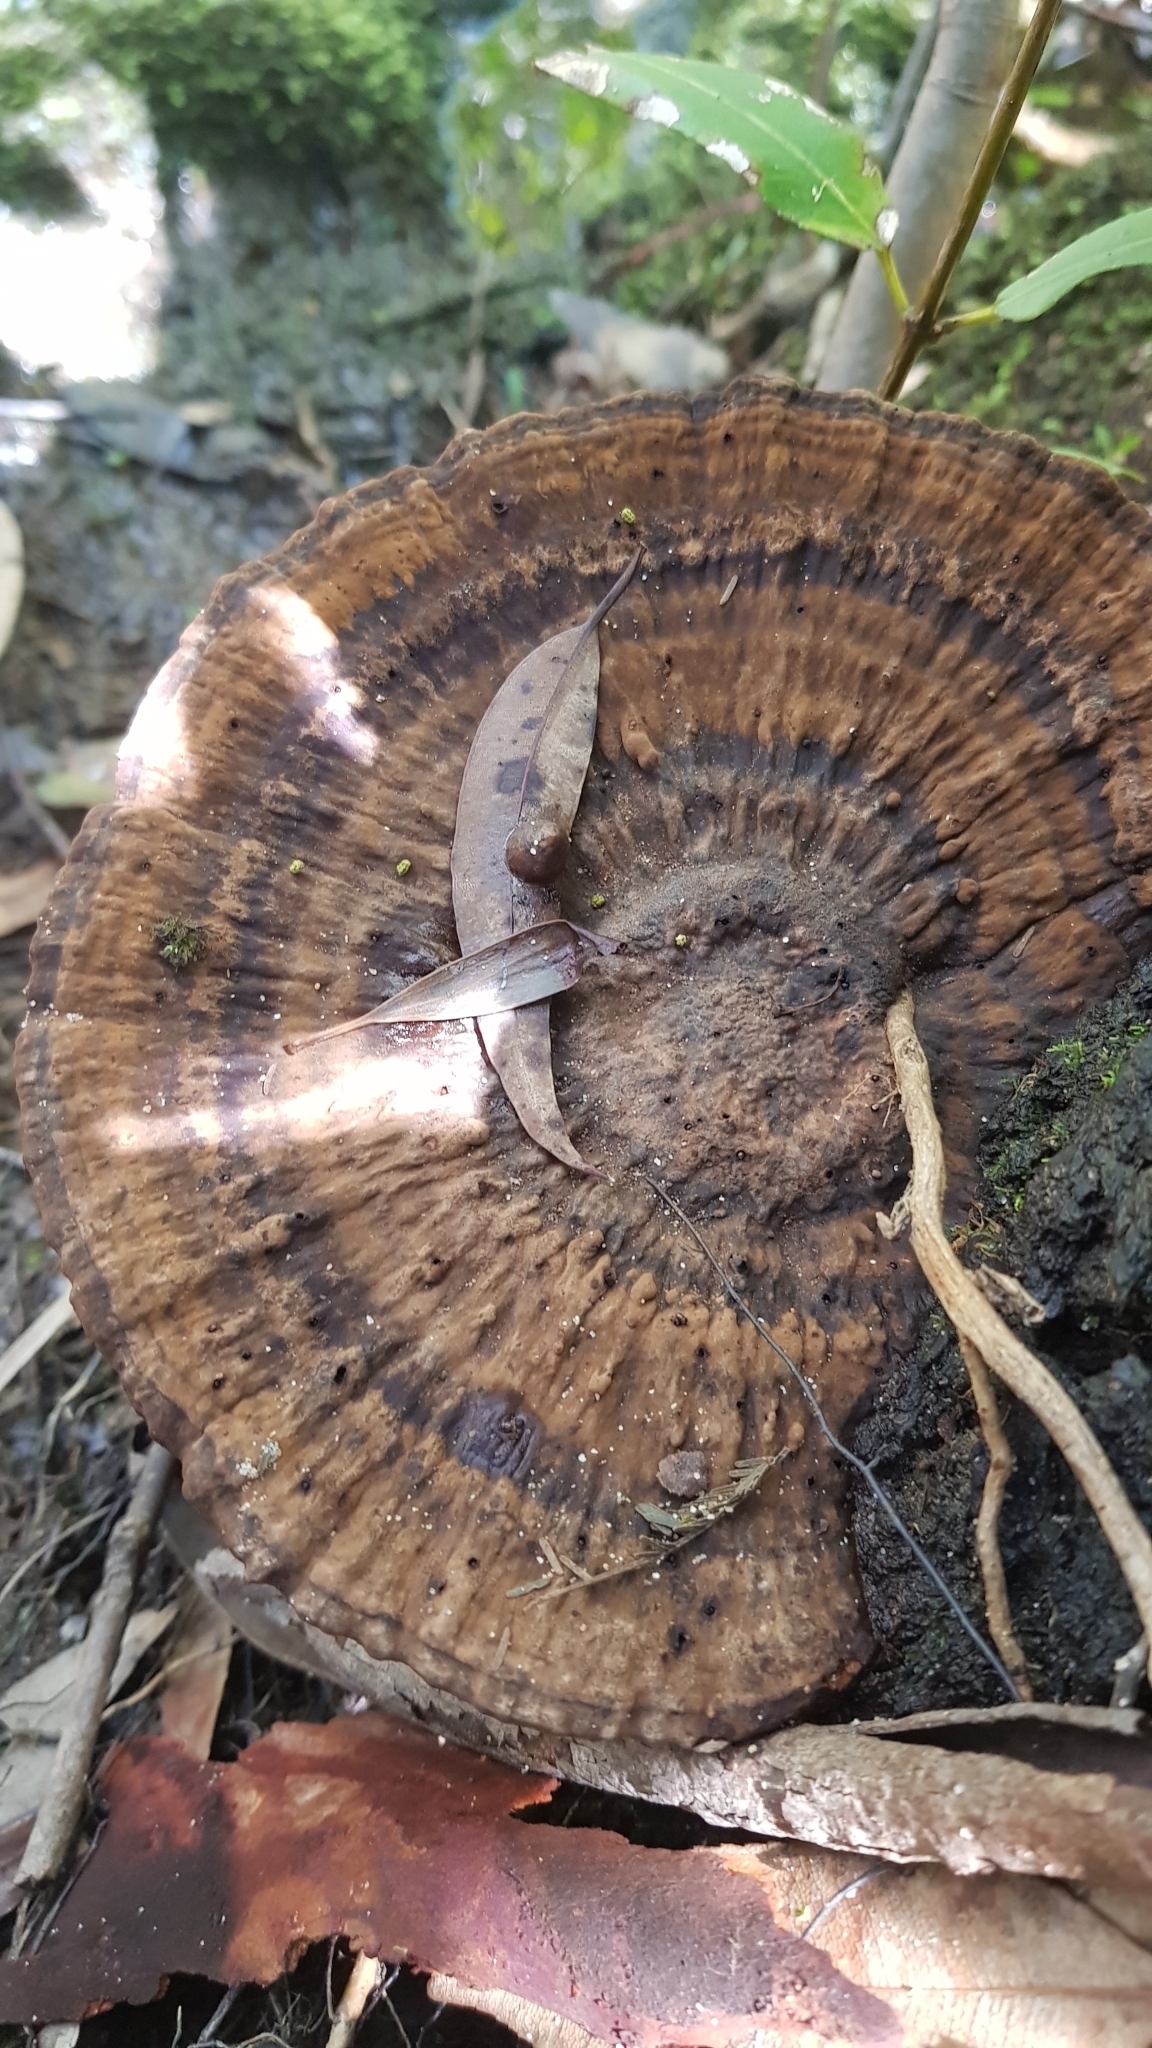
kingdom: Fungi
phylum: Basidiomycota
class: Agaricomycetes
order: Polyporales
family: Ganodermataceae
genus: Sanguinoderma
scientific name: Sanguinoderma rude
